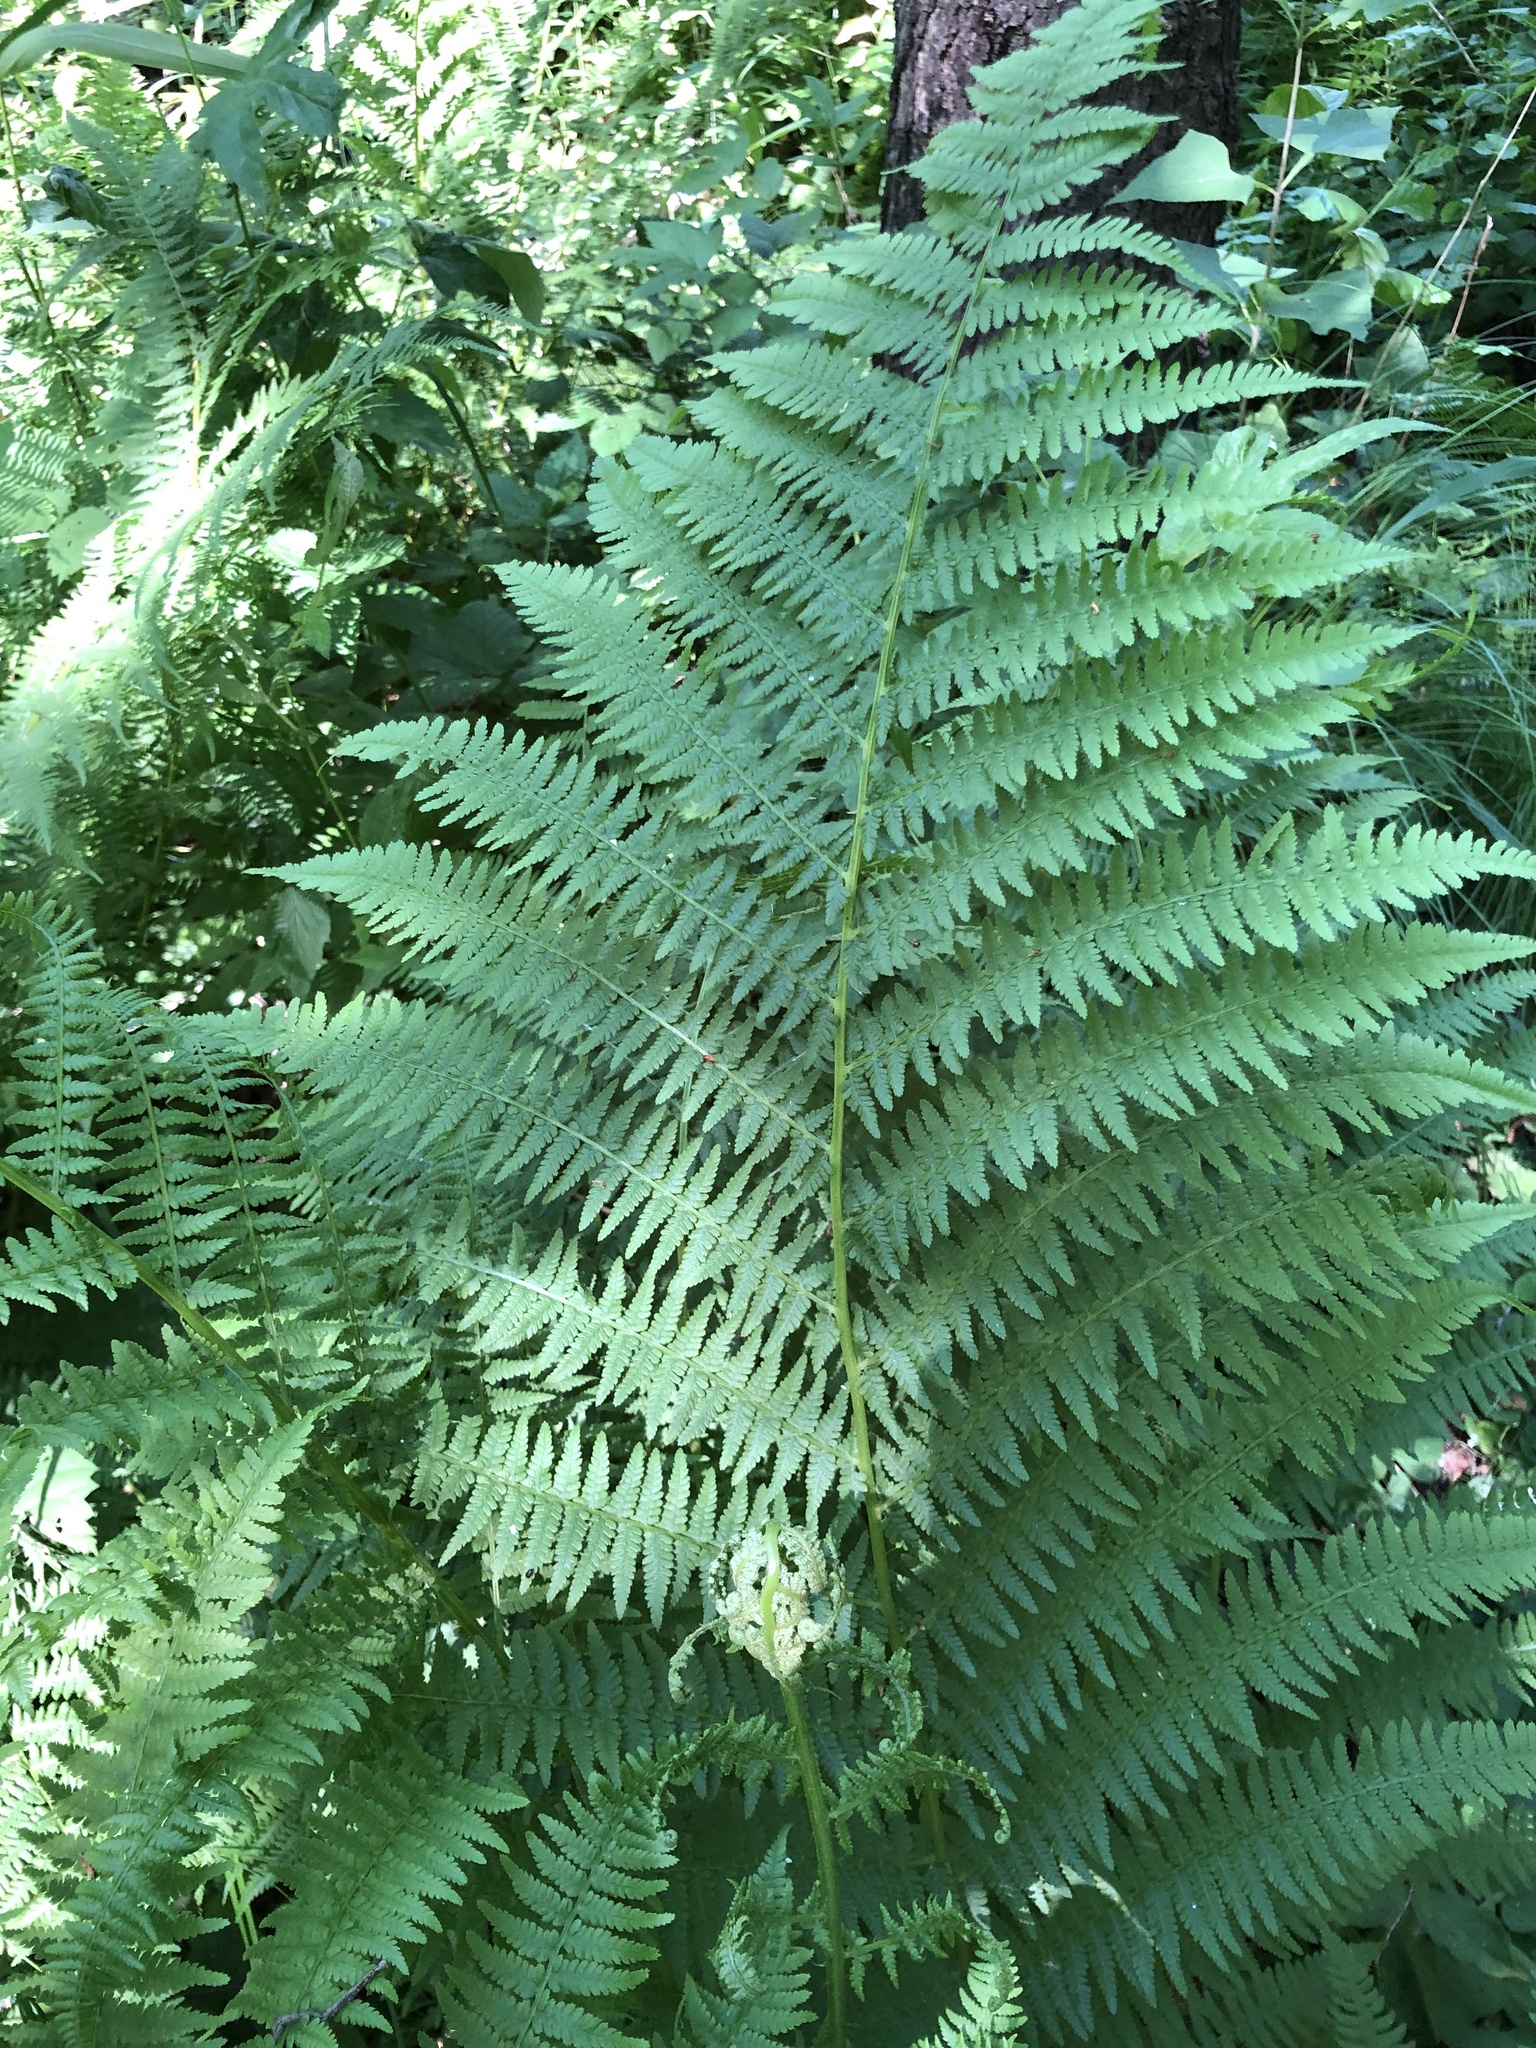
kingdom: Plantae
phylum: Tracheophyta
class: Polypodiopsida
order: Polypodiales
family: Athyriaceae
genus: Athyrium
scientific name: Athyrium filix-femina
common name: Lady fern
